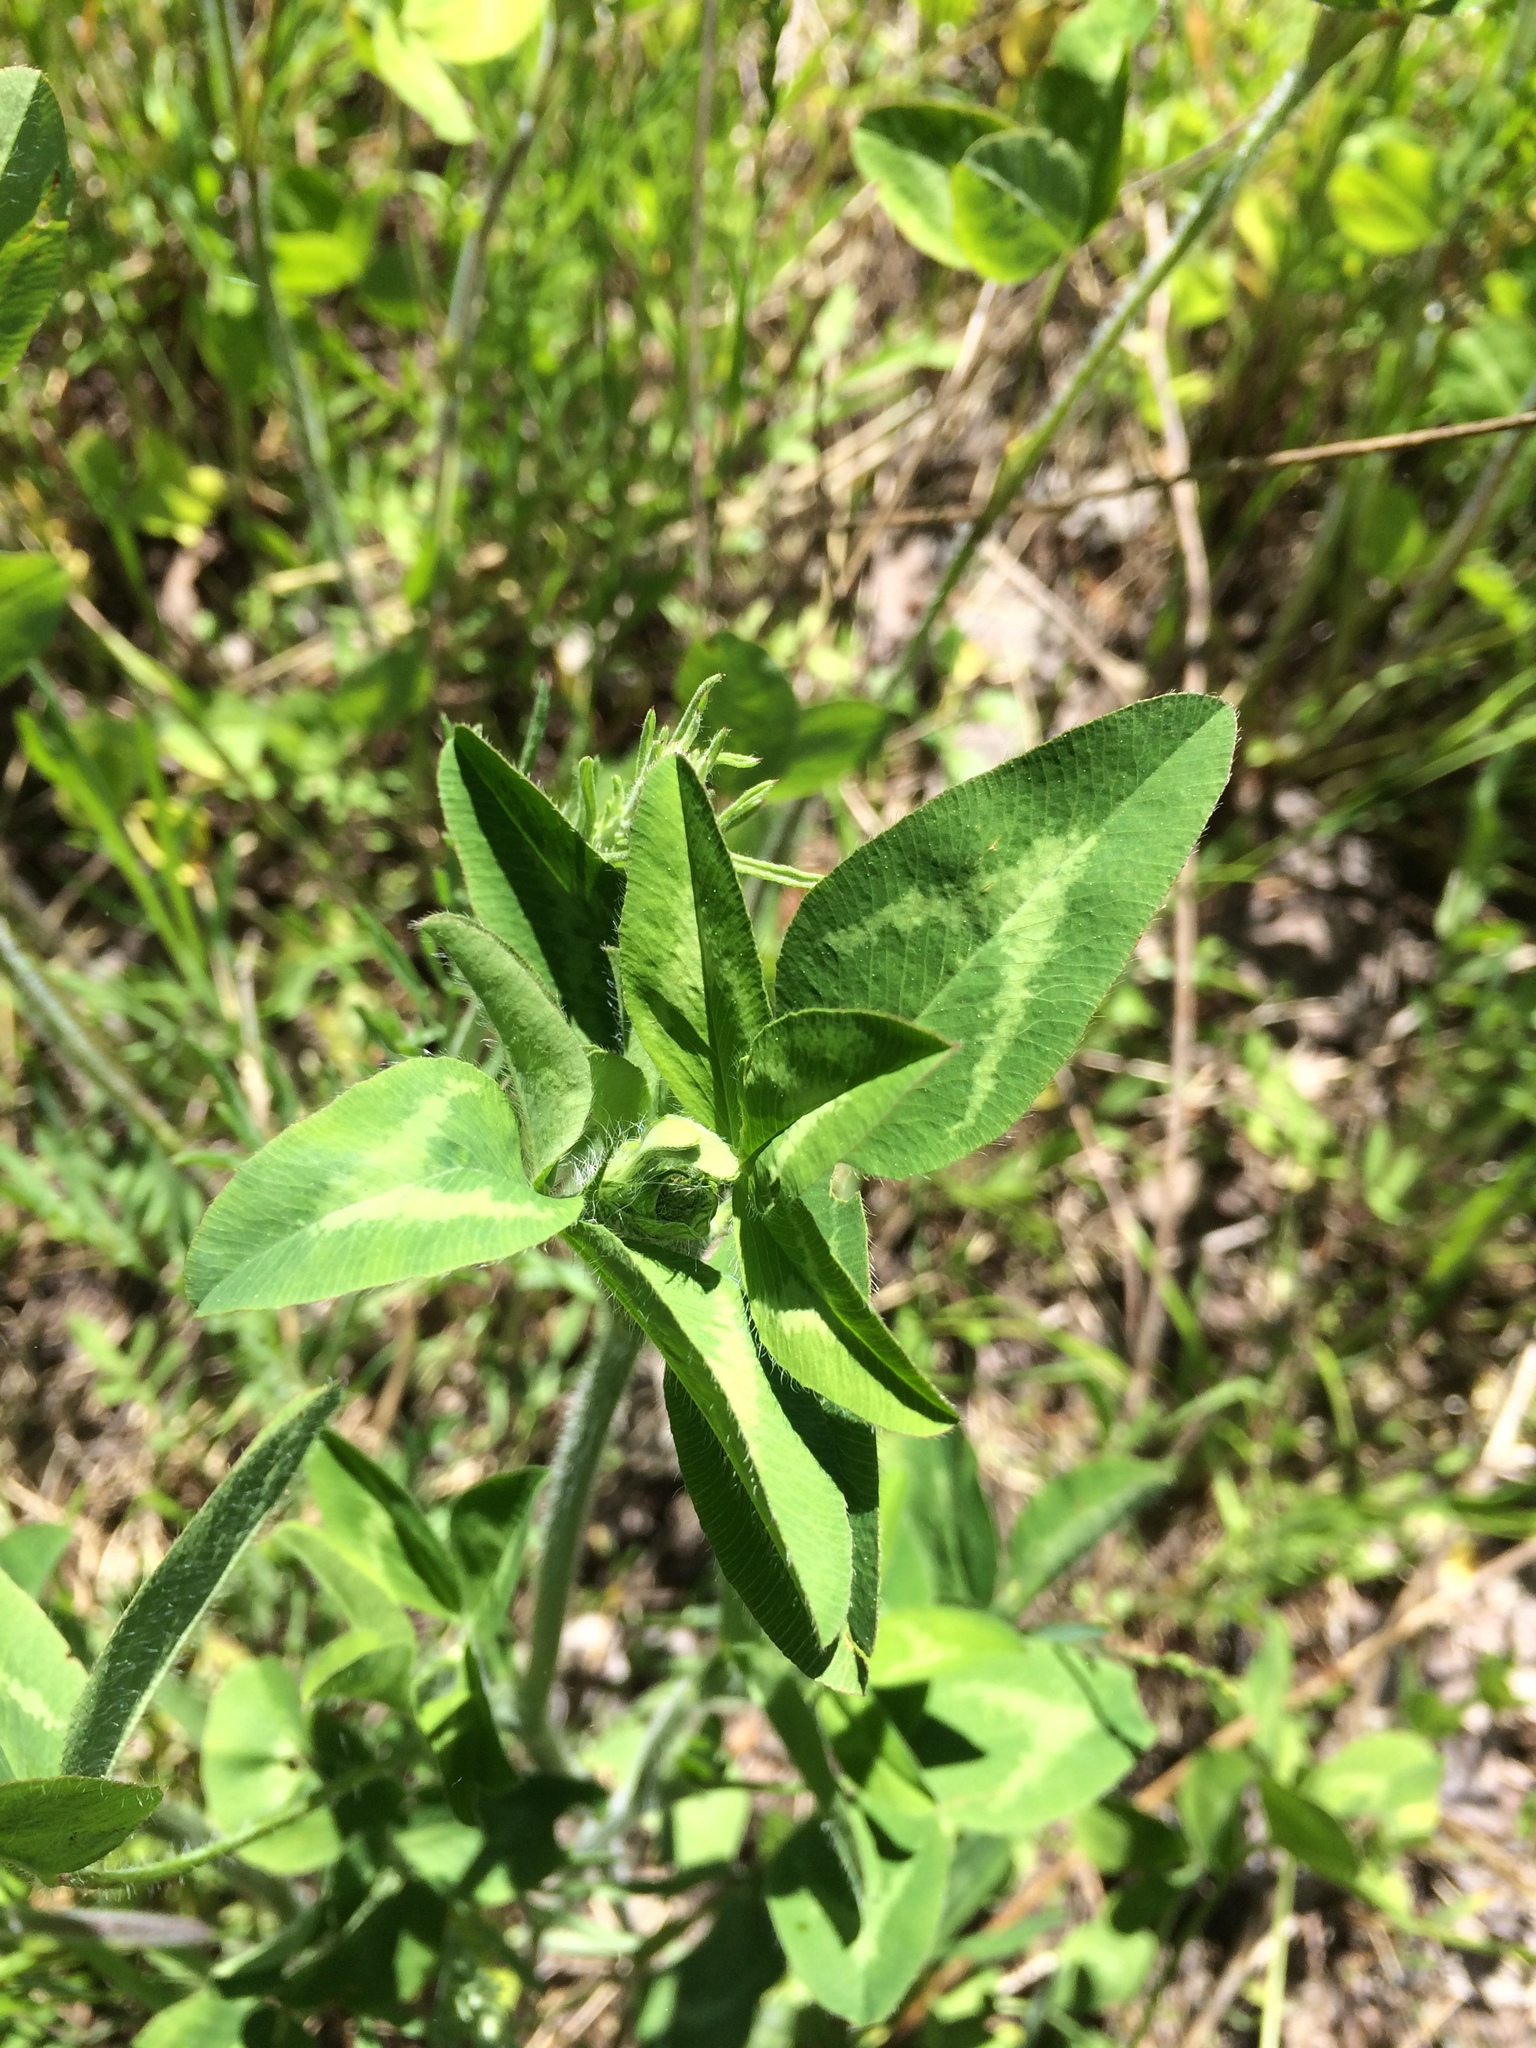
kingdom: Plantae
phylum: Tracheophyta
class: Magnoliopsida
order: Fabales
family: Fabaceae
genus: Trifolium
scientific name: Trifolium pratense
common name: Red clover
